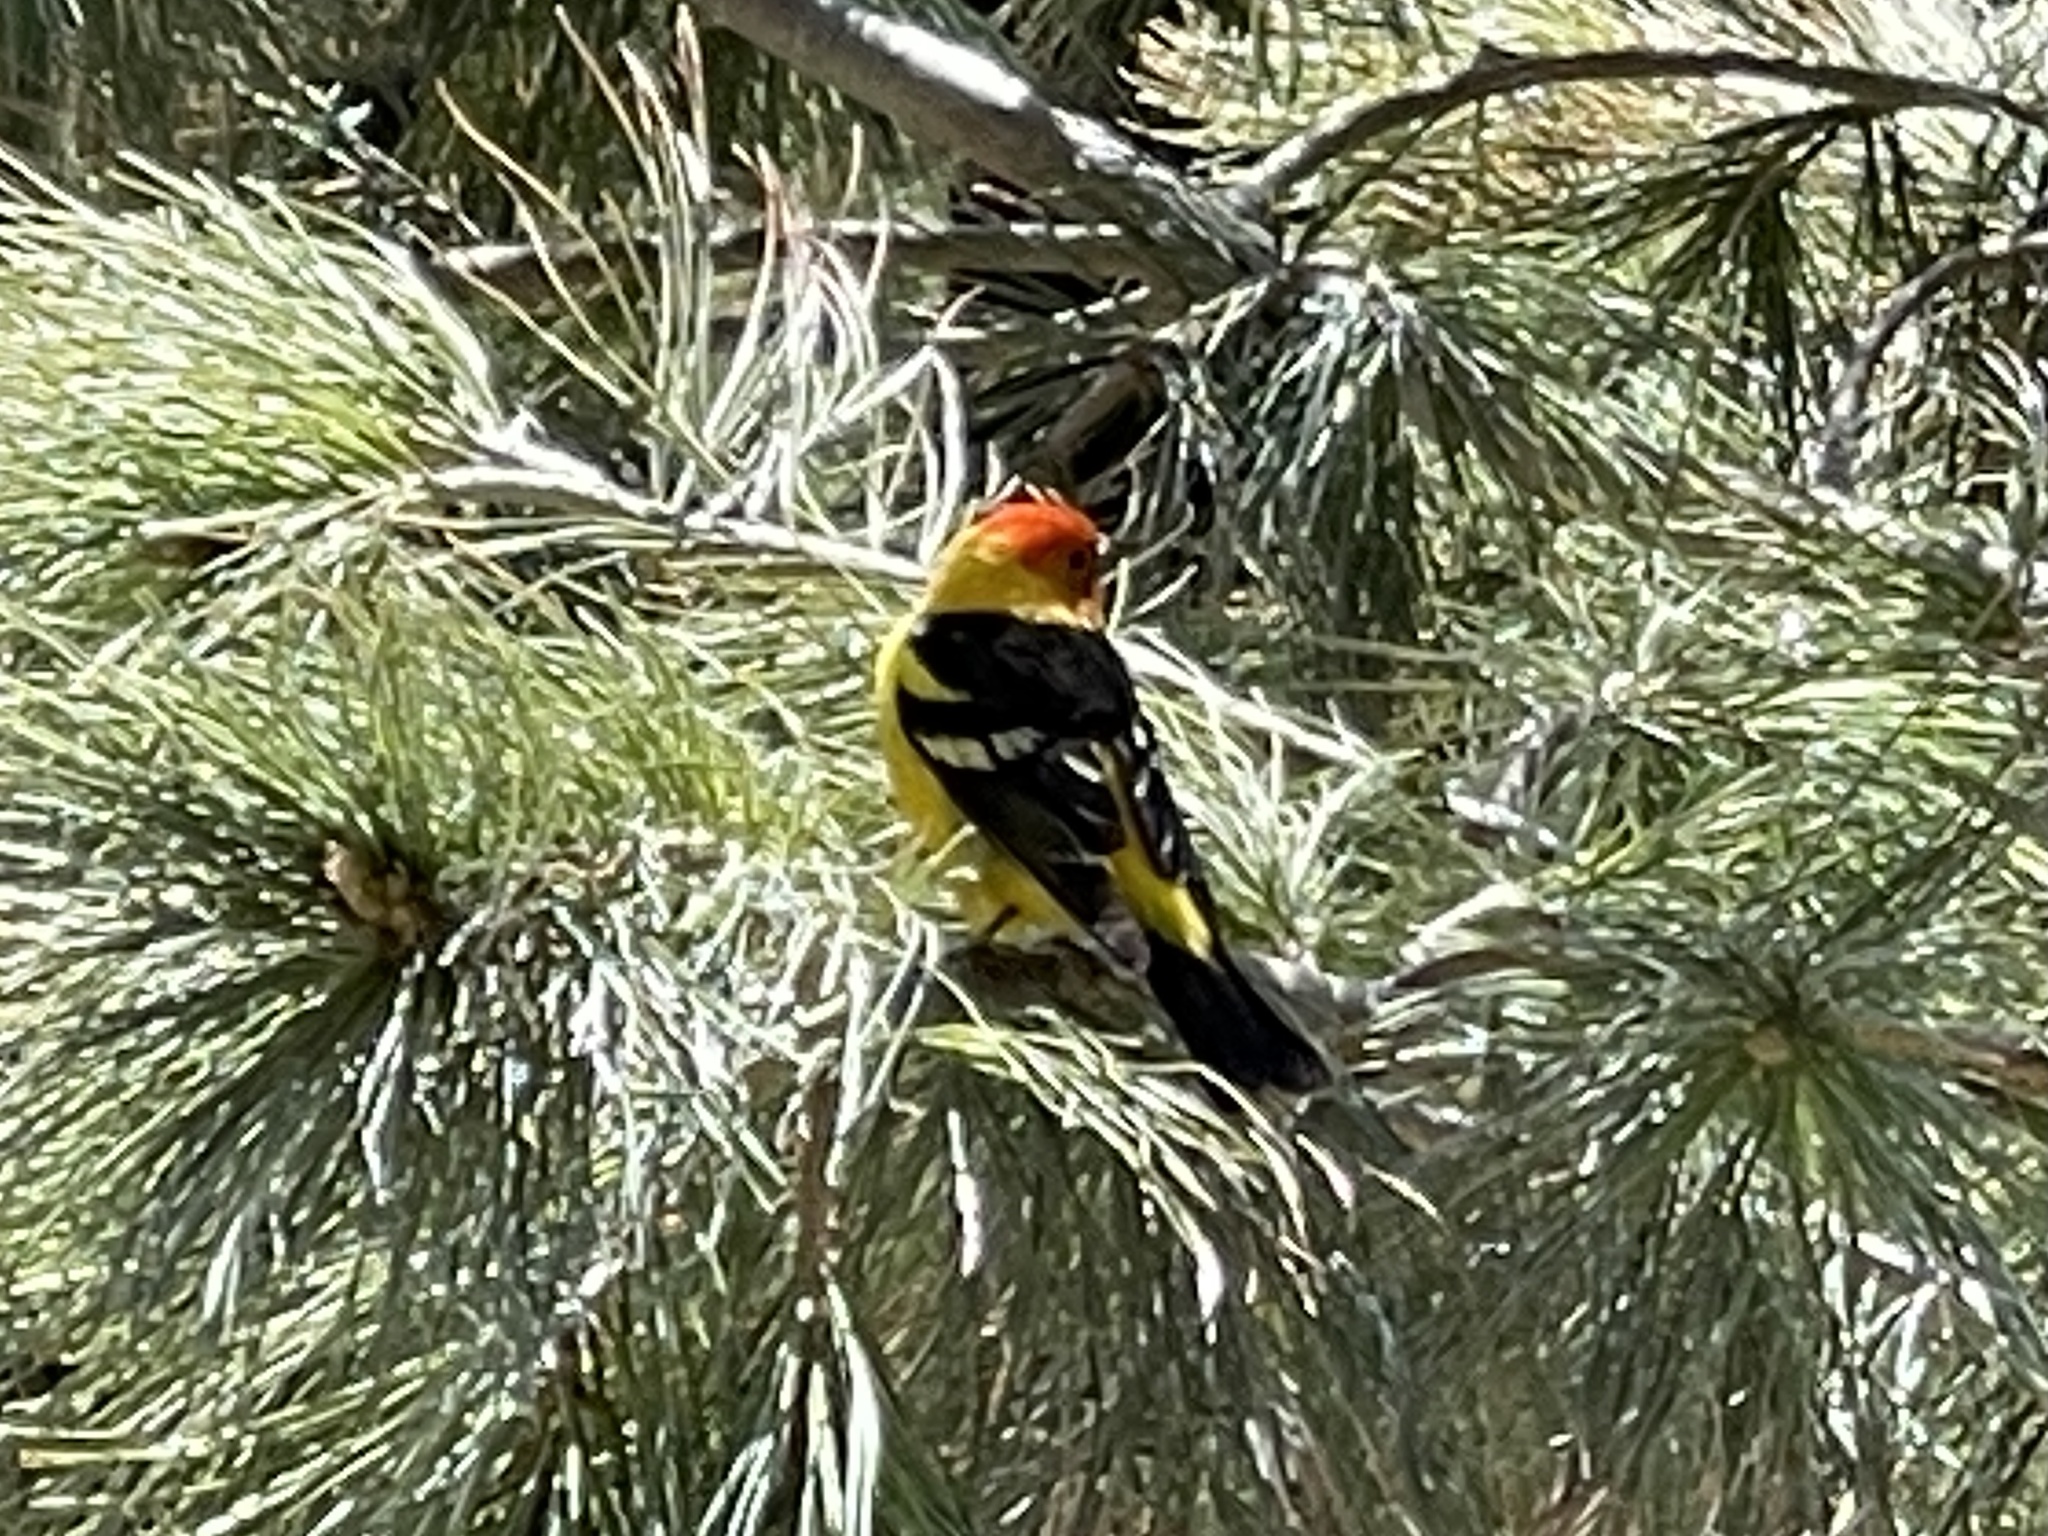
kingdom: Animalia
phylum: Chordata
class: Aves
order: Passeriformes
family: Cardinalidae
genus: Piranga
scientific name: Piranga ludoviciana
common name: Western tanager
